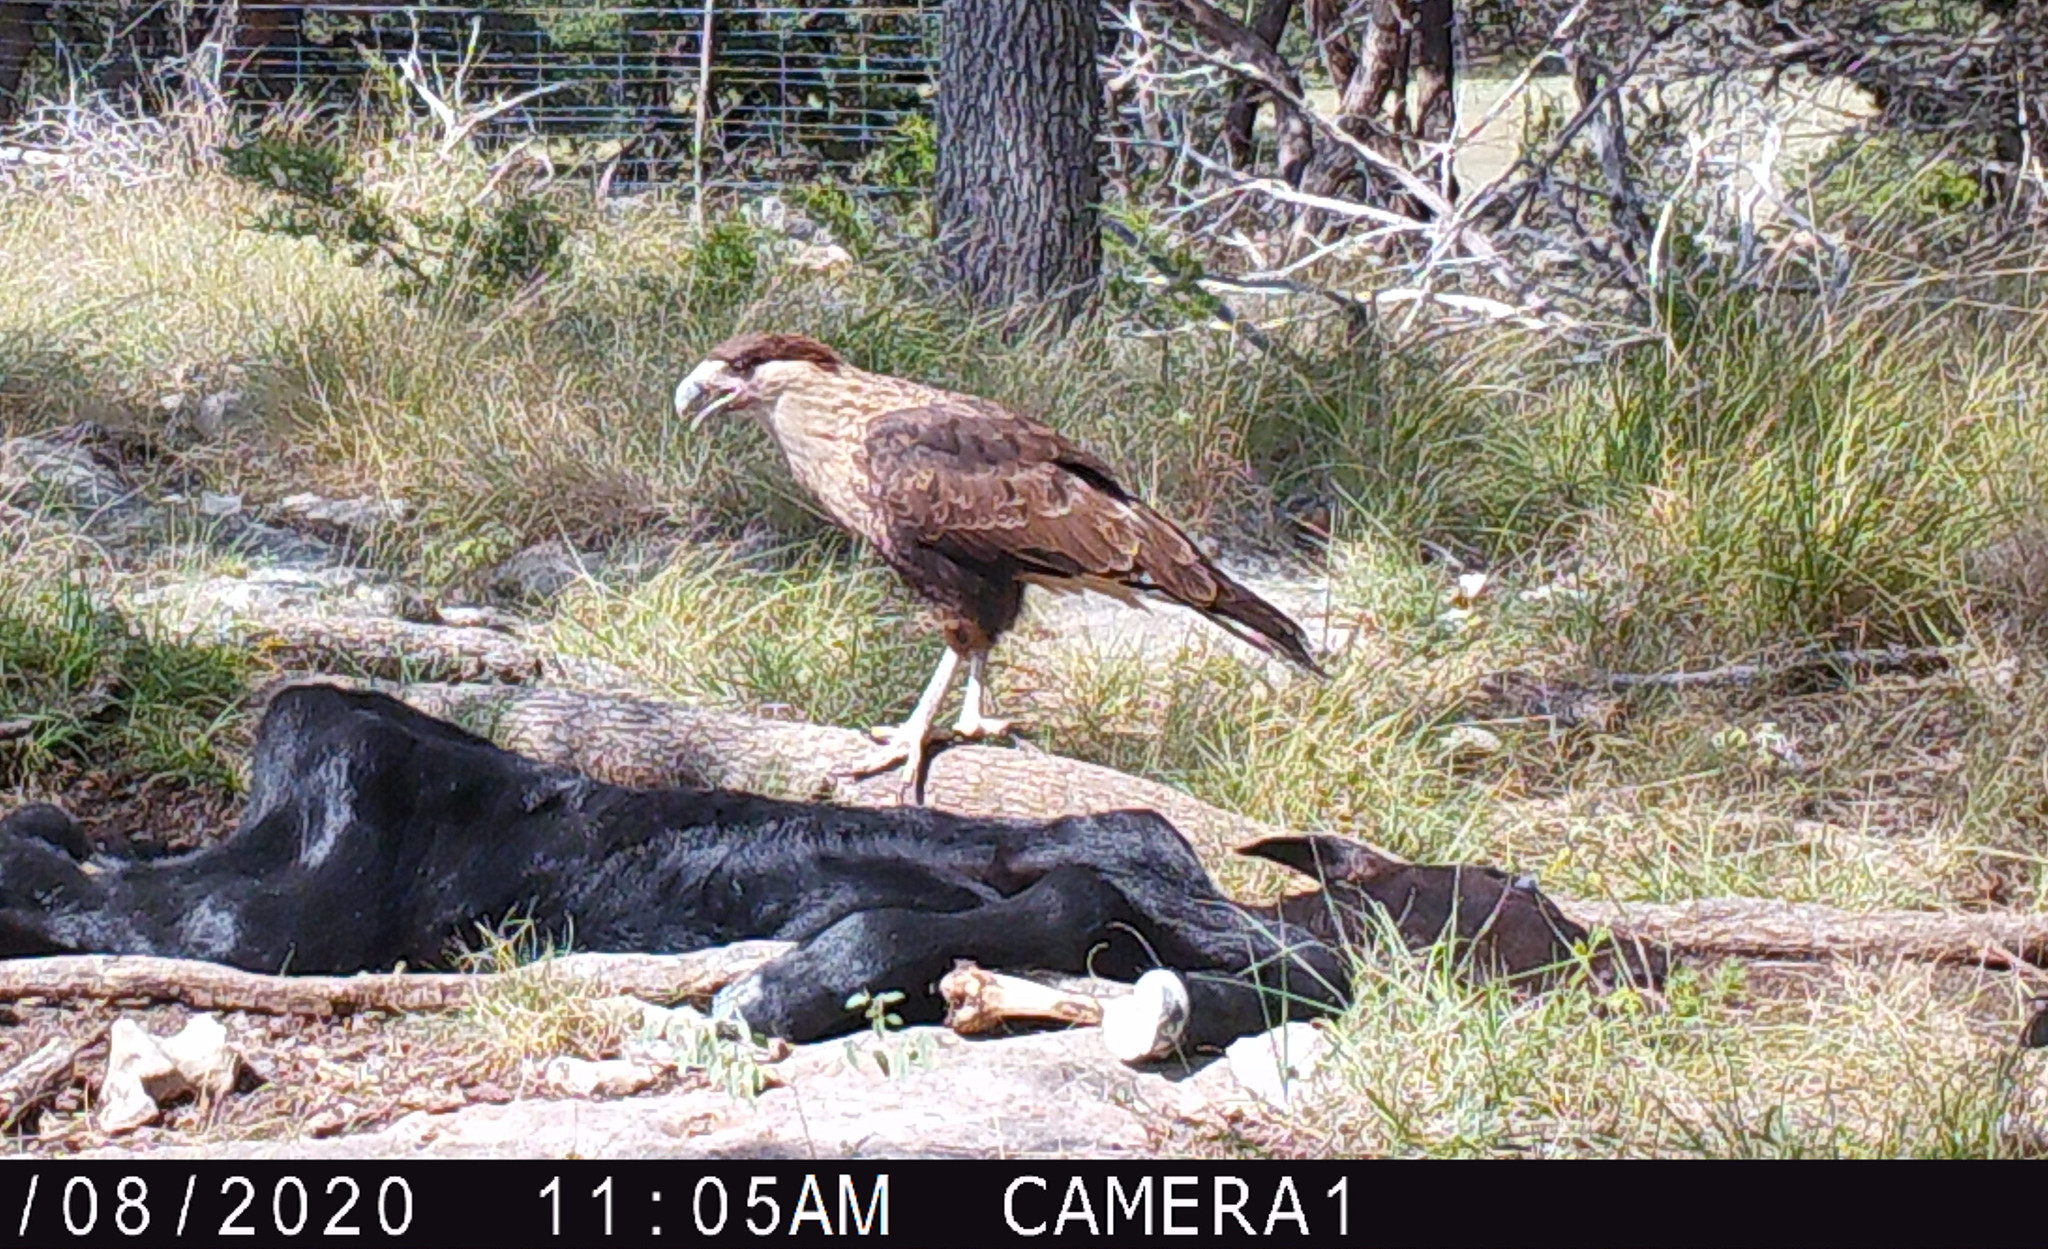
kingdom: Animalia
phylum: Chordata
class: Aves
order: Falconiformes
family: Falconidae
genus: Caracara
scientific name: Caracara plancus
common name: Southern caracara
